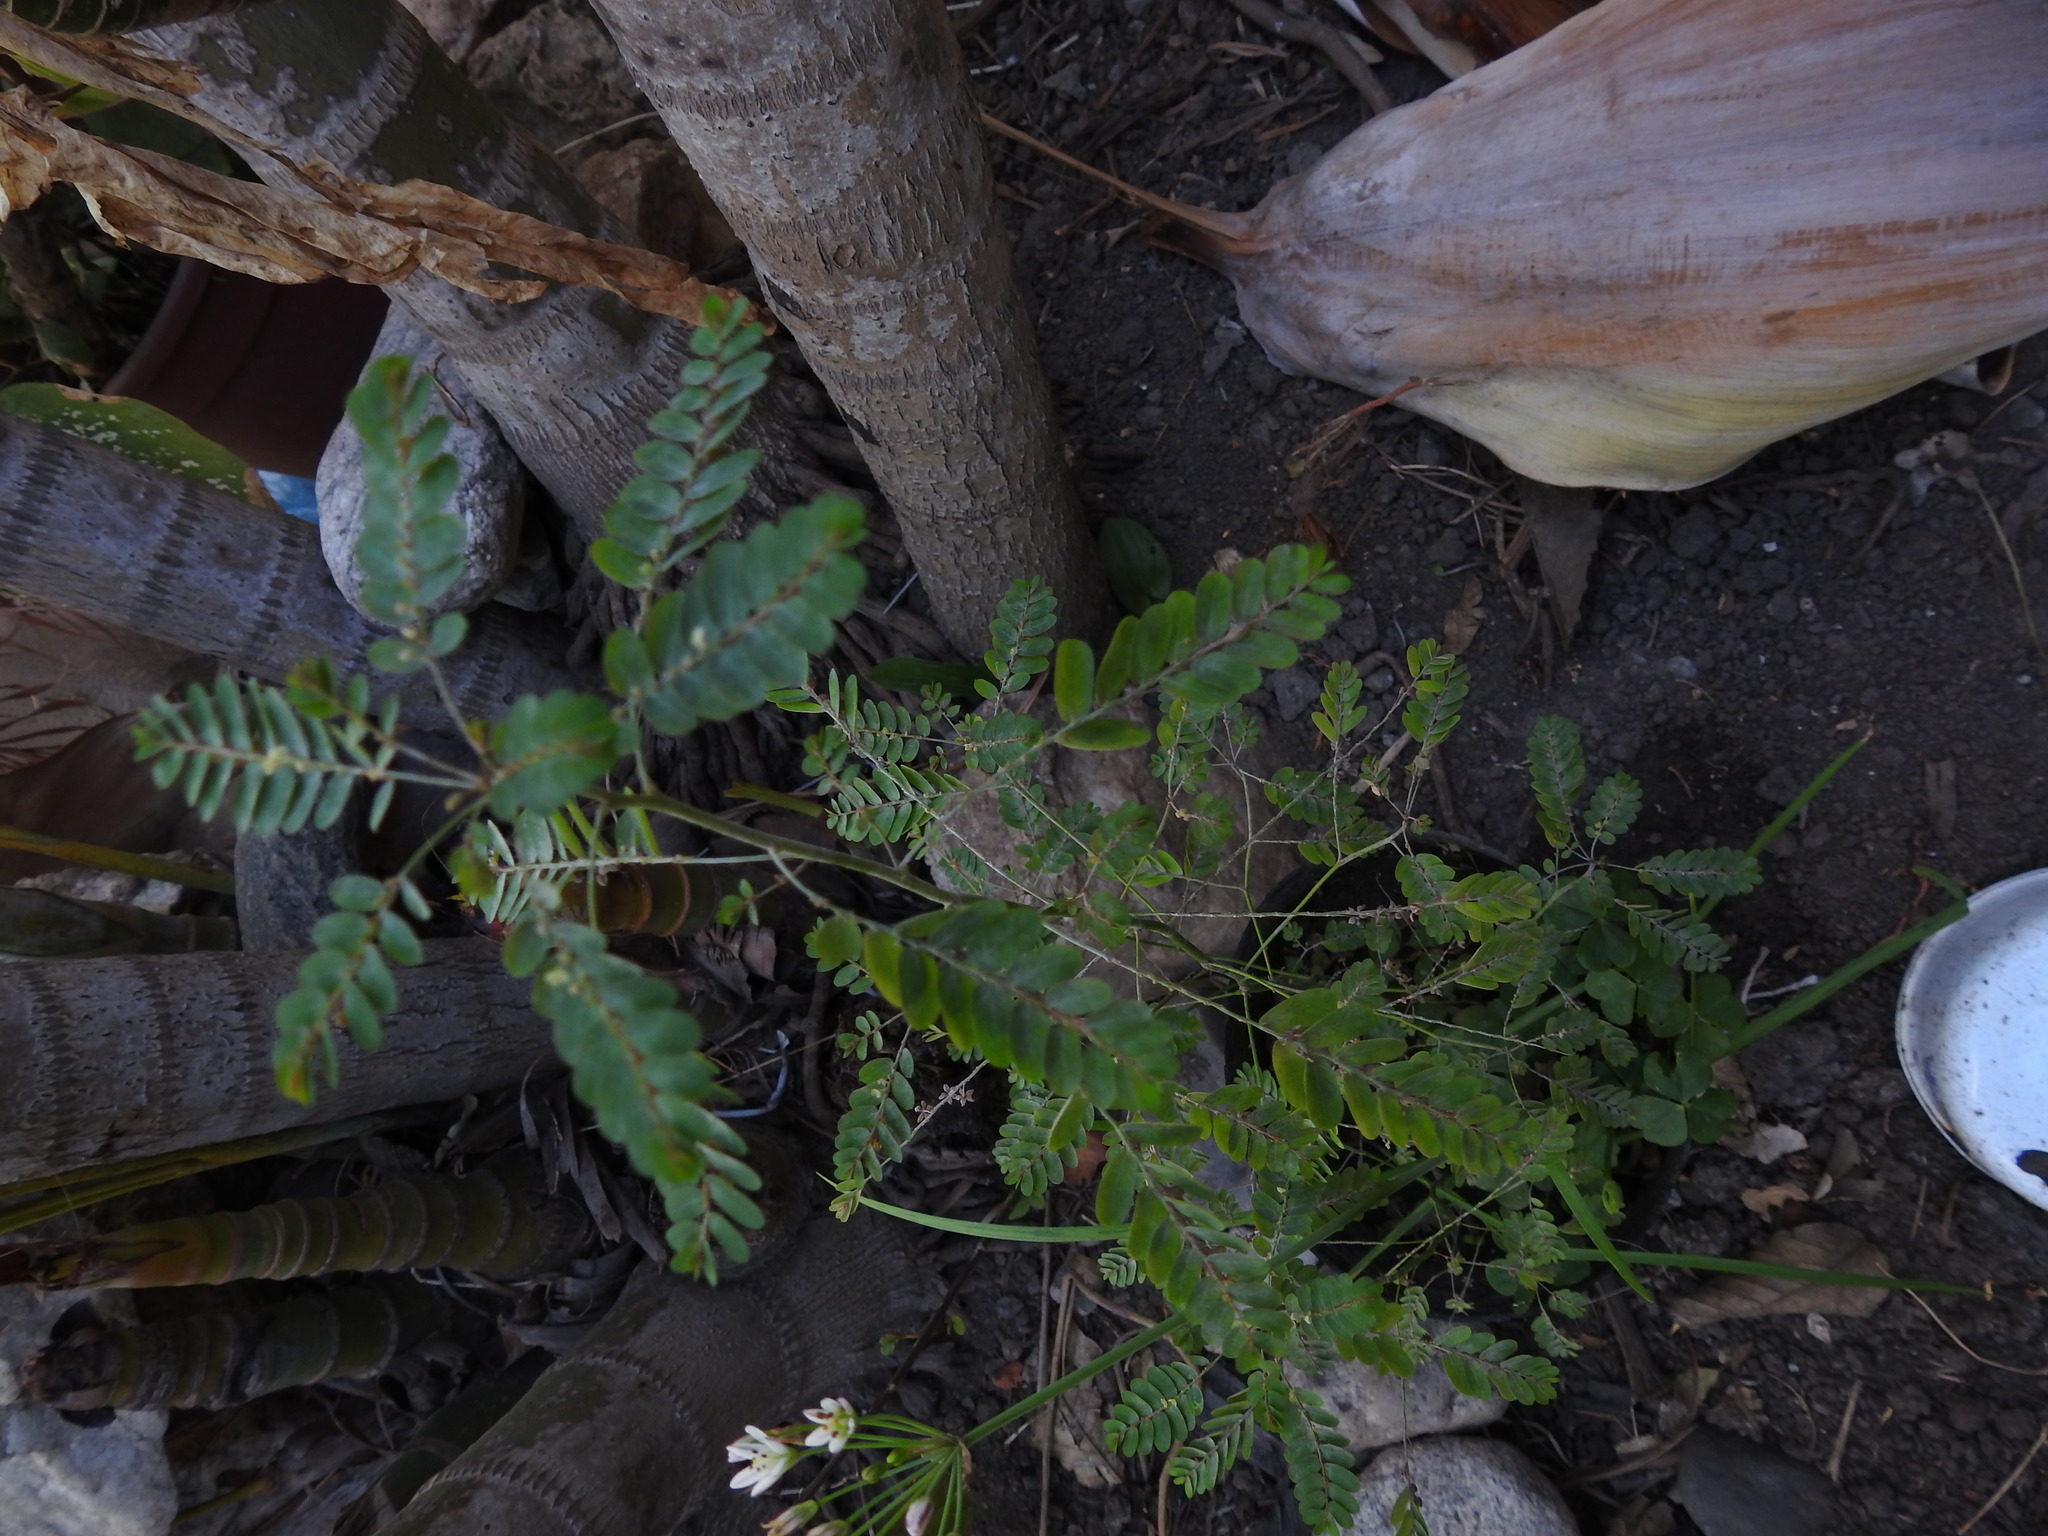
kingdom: Plantae
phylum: Tracheophyta
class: Magnoliopsida
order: Malpighiales
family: Phyllanthaceae
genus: Phyllanthus
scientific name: Phyllanthus urinaria
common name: Chamber bitter
